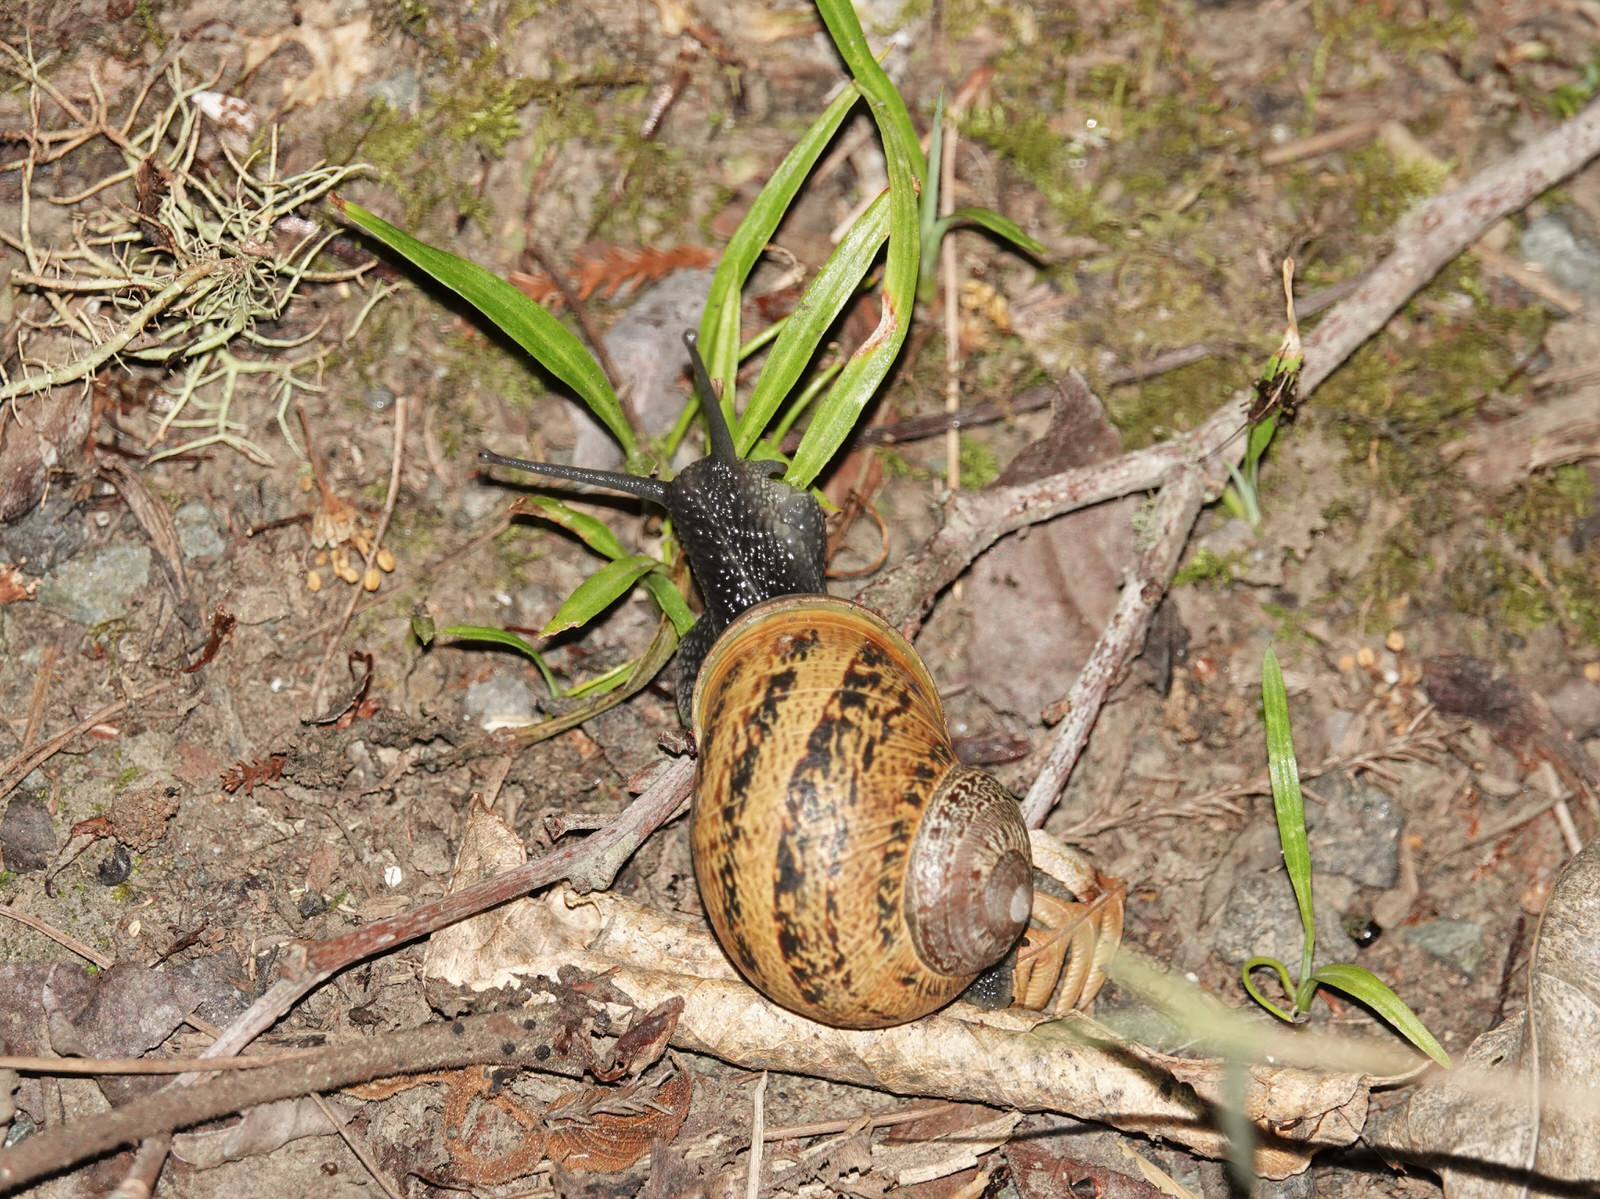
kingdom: Animalia
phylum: Mollusca
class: Gastropoda
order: Stylommatophora
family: Helicidae
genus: Cornu
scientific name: Cornu aspersum
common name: Brown garden snail
